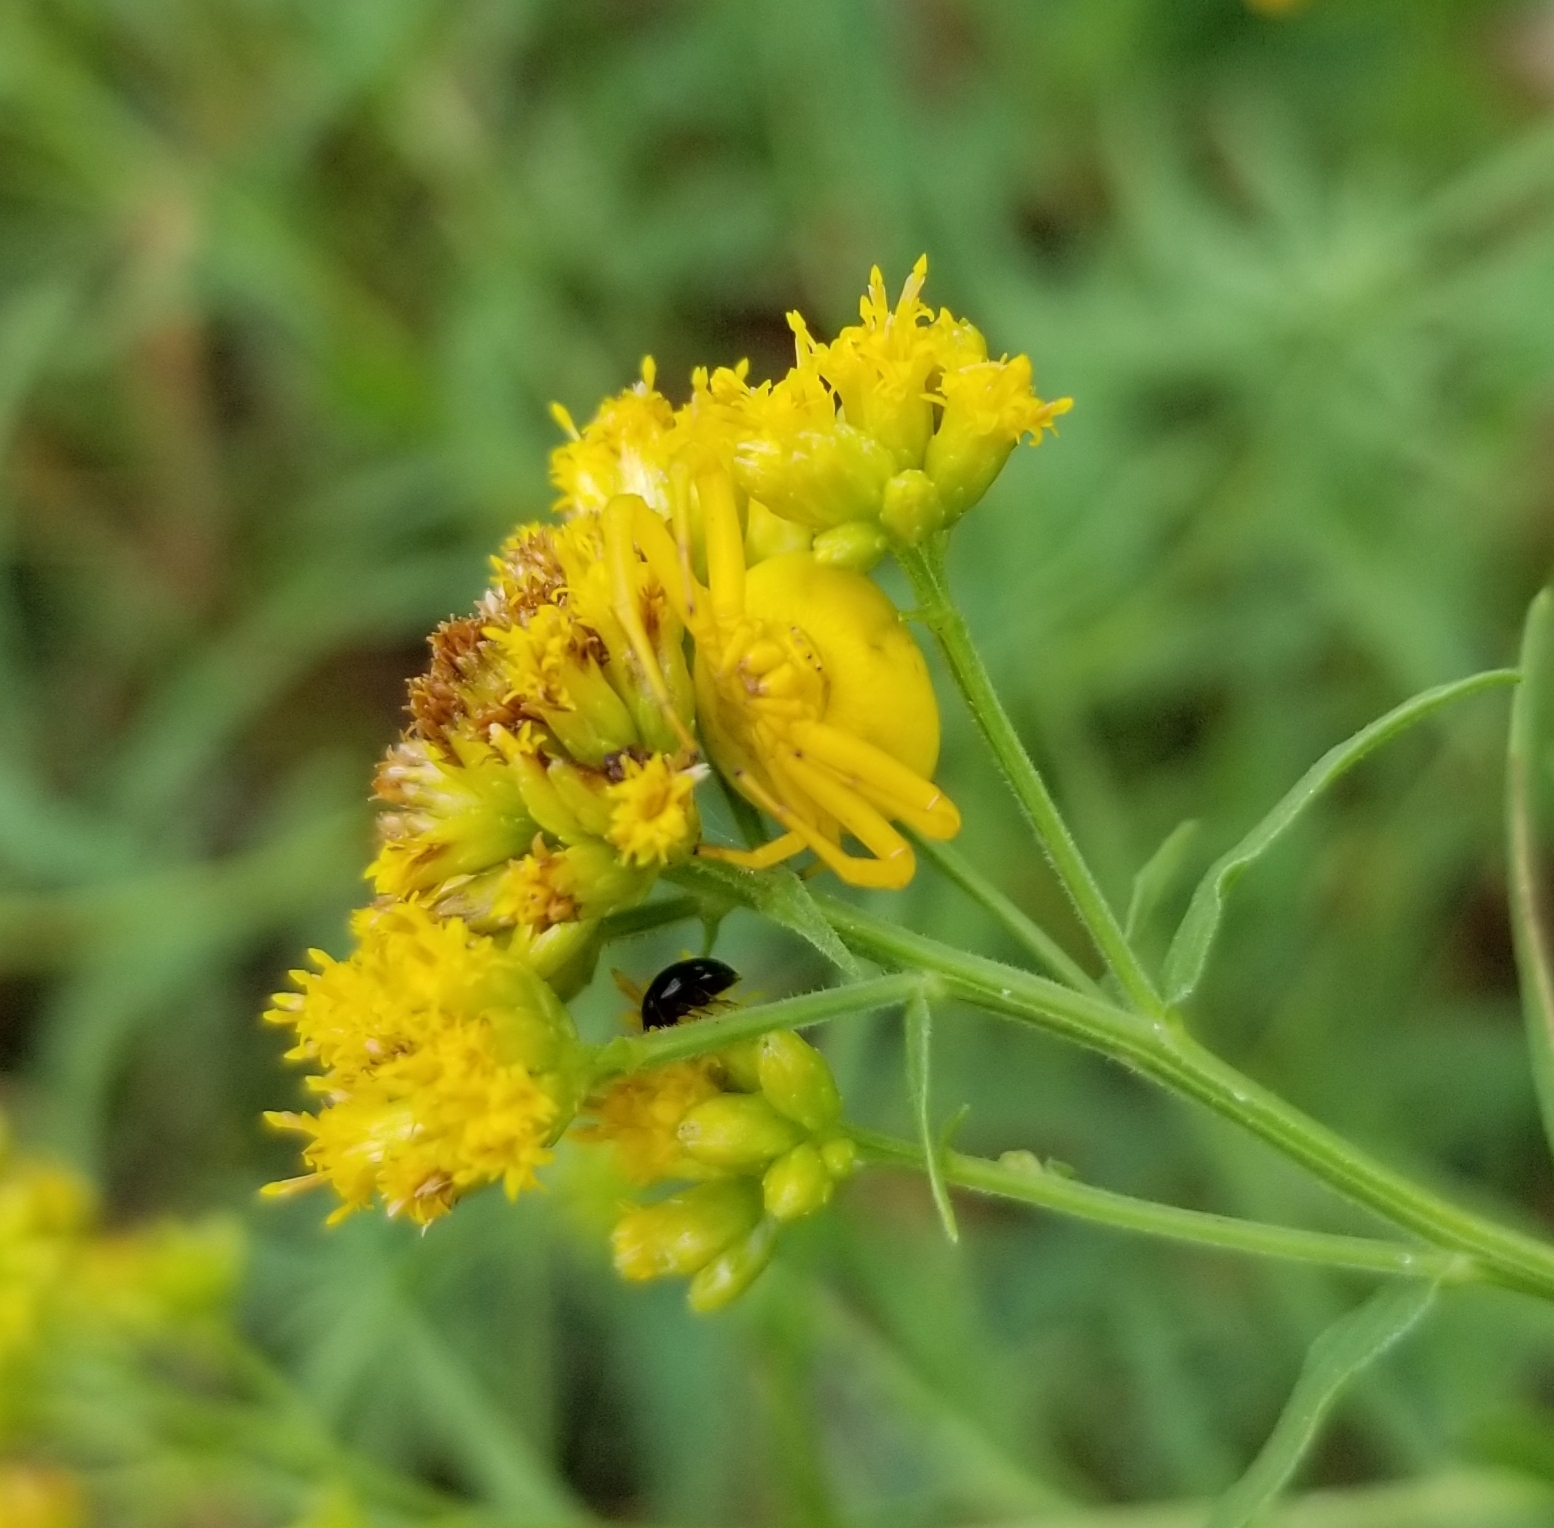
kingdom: Plantae
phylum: Tracheophyta
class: Magnoliopsida
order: Asterales
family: Asteraceae
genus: Euthamia
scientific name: Euthamia graminifolia
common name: Common goldentop
